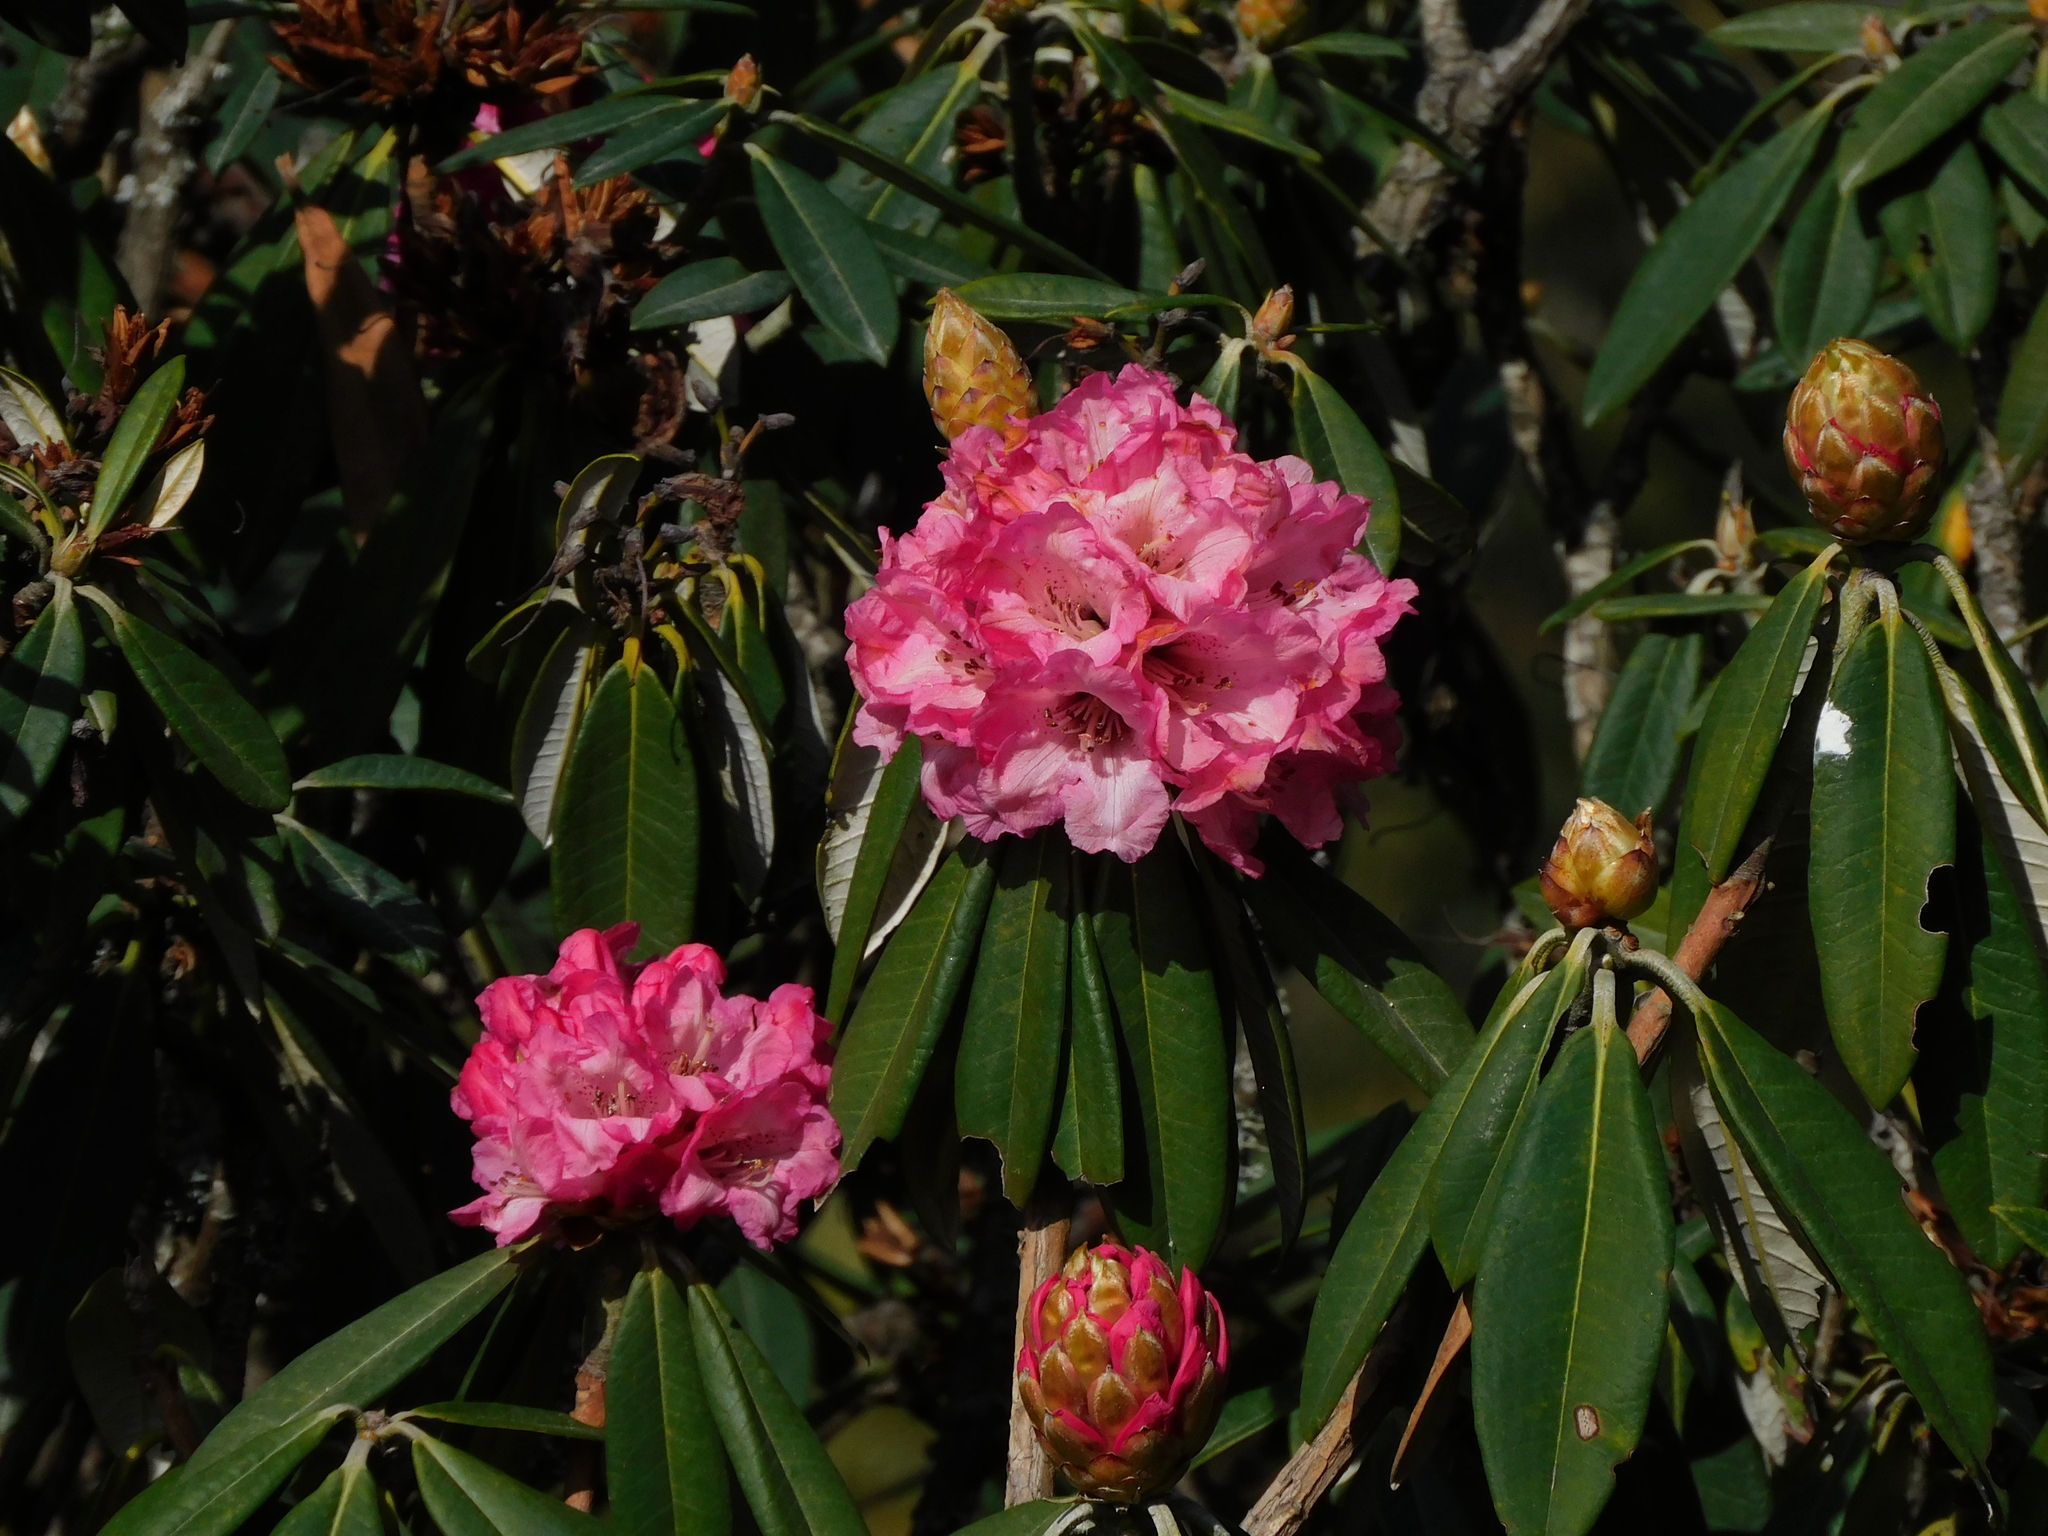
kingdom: Plantae
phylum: Tracheophyta
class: Magnoliopsida
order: Ericales
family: Ericaceae
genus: Rhododendron
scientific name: Rhododendron arboreum
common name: Tree rhododendron
